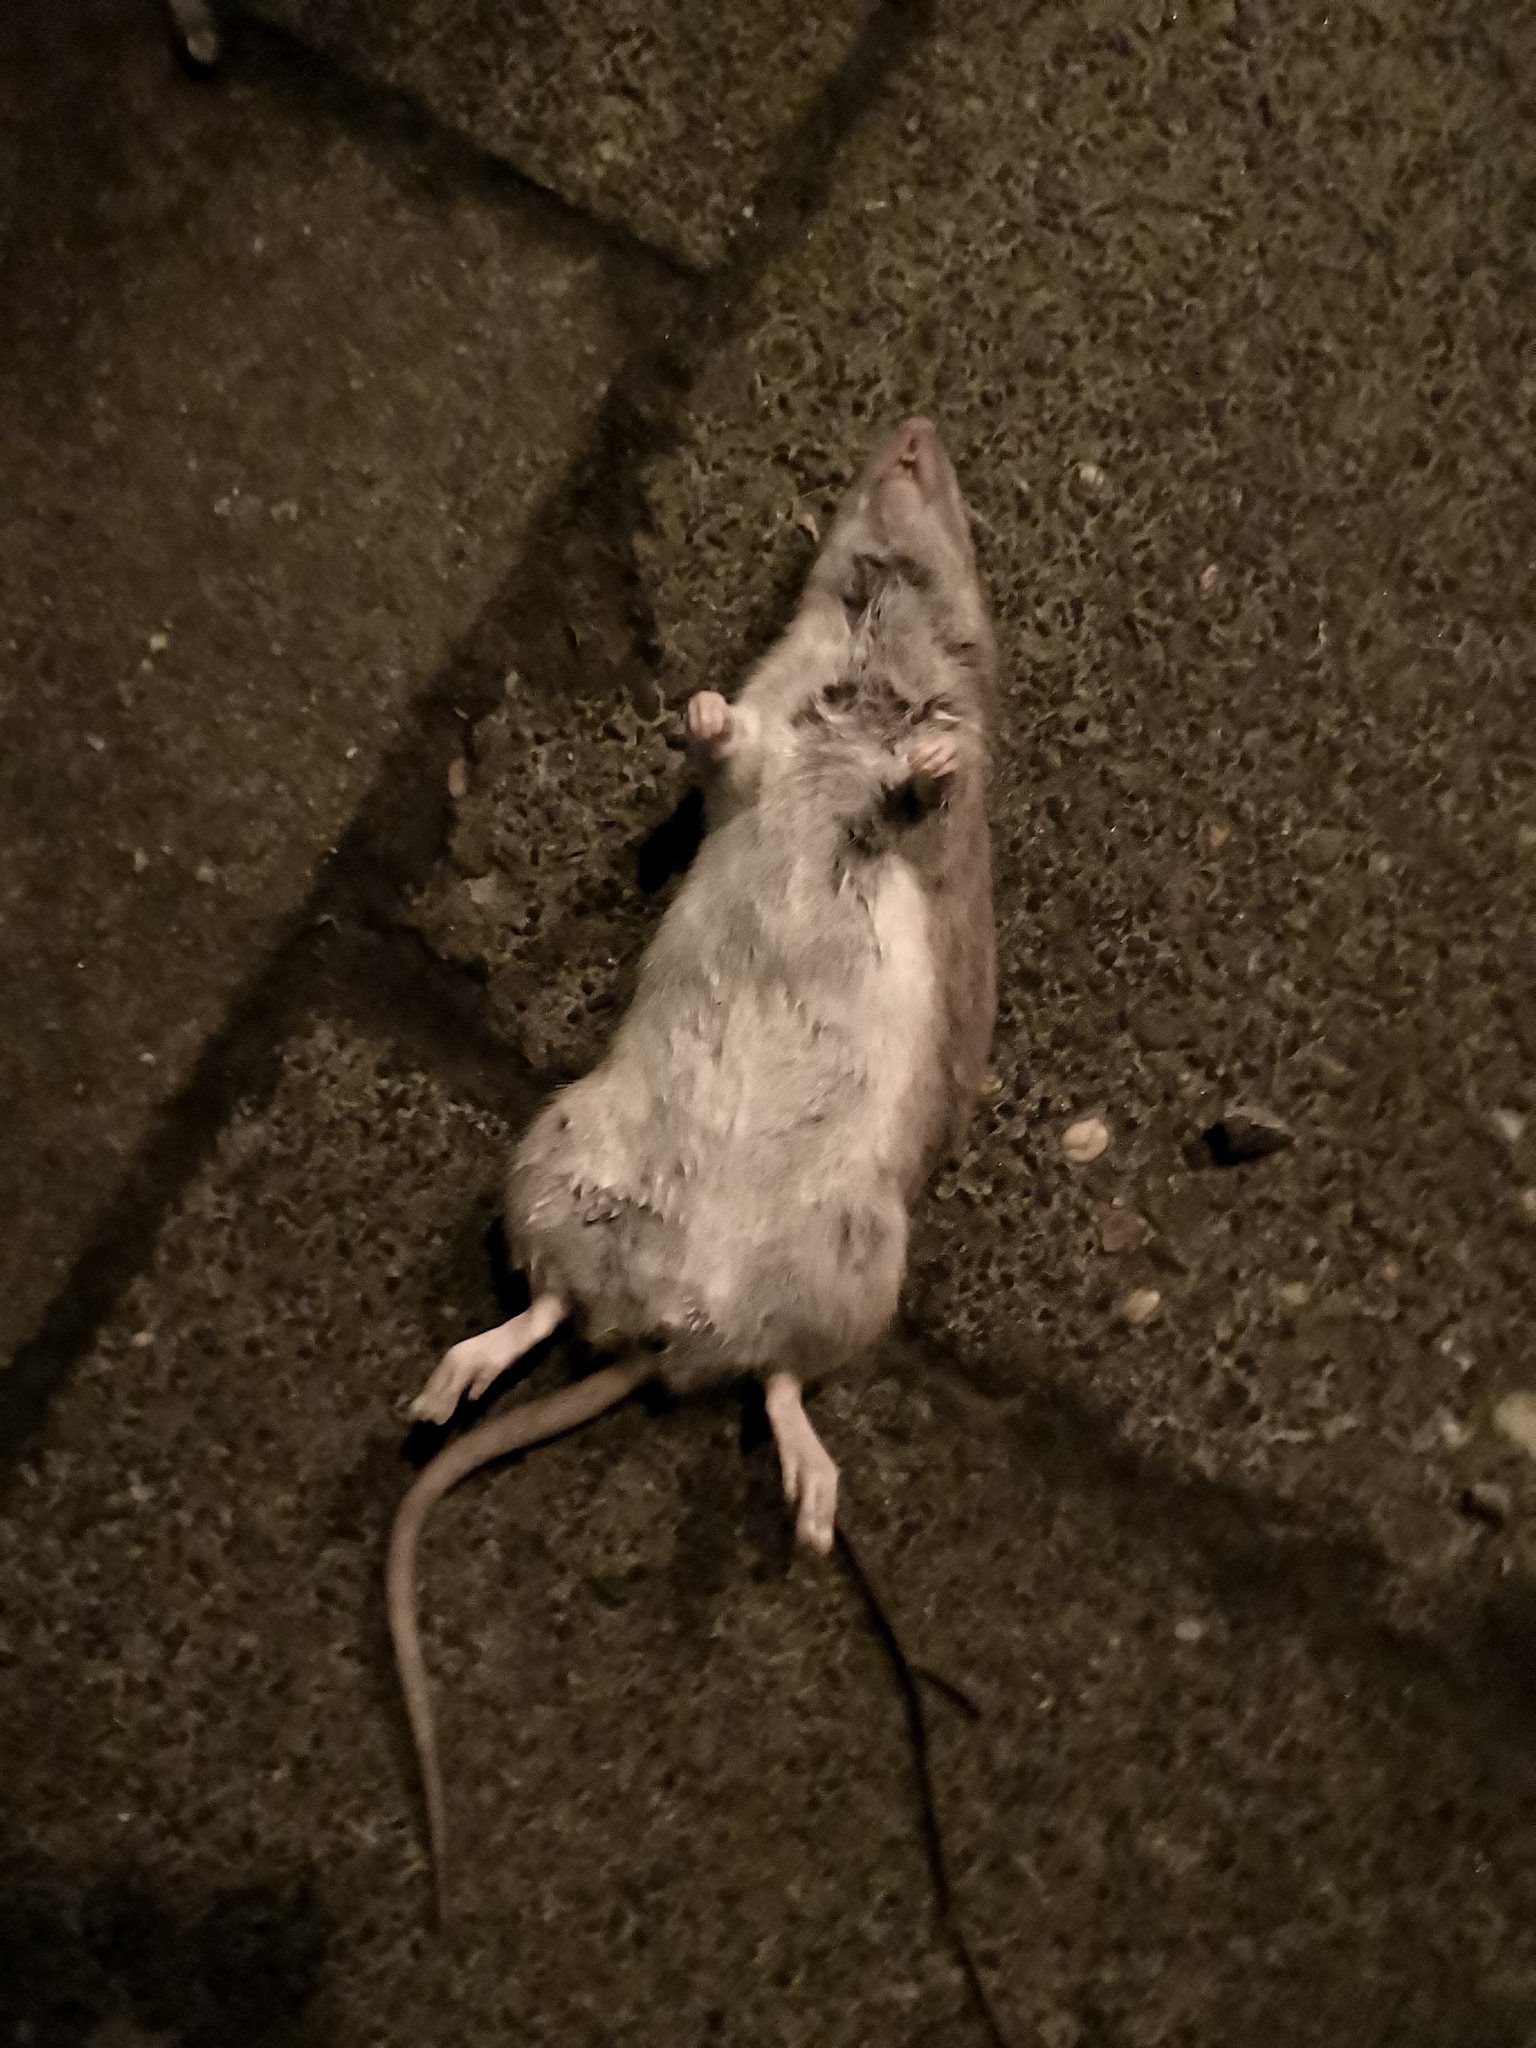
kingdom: Animalia
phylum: Chordata
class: Mammalia
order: Rodentia
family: Muridae
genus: Rattus
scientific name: Rattus norvegicus
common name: Brown rat
